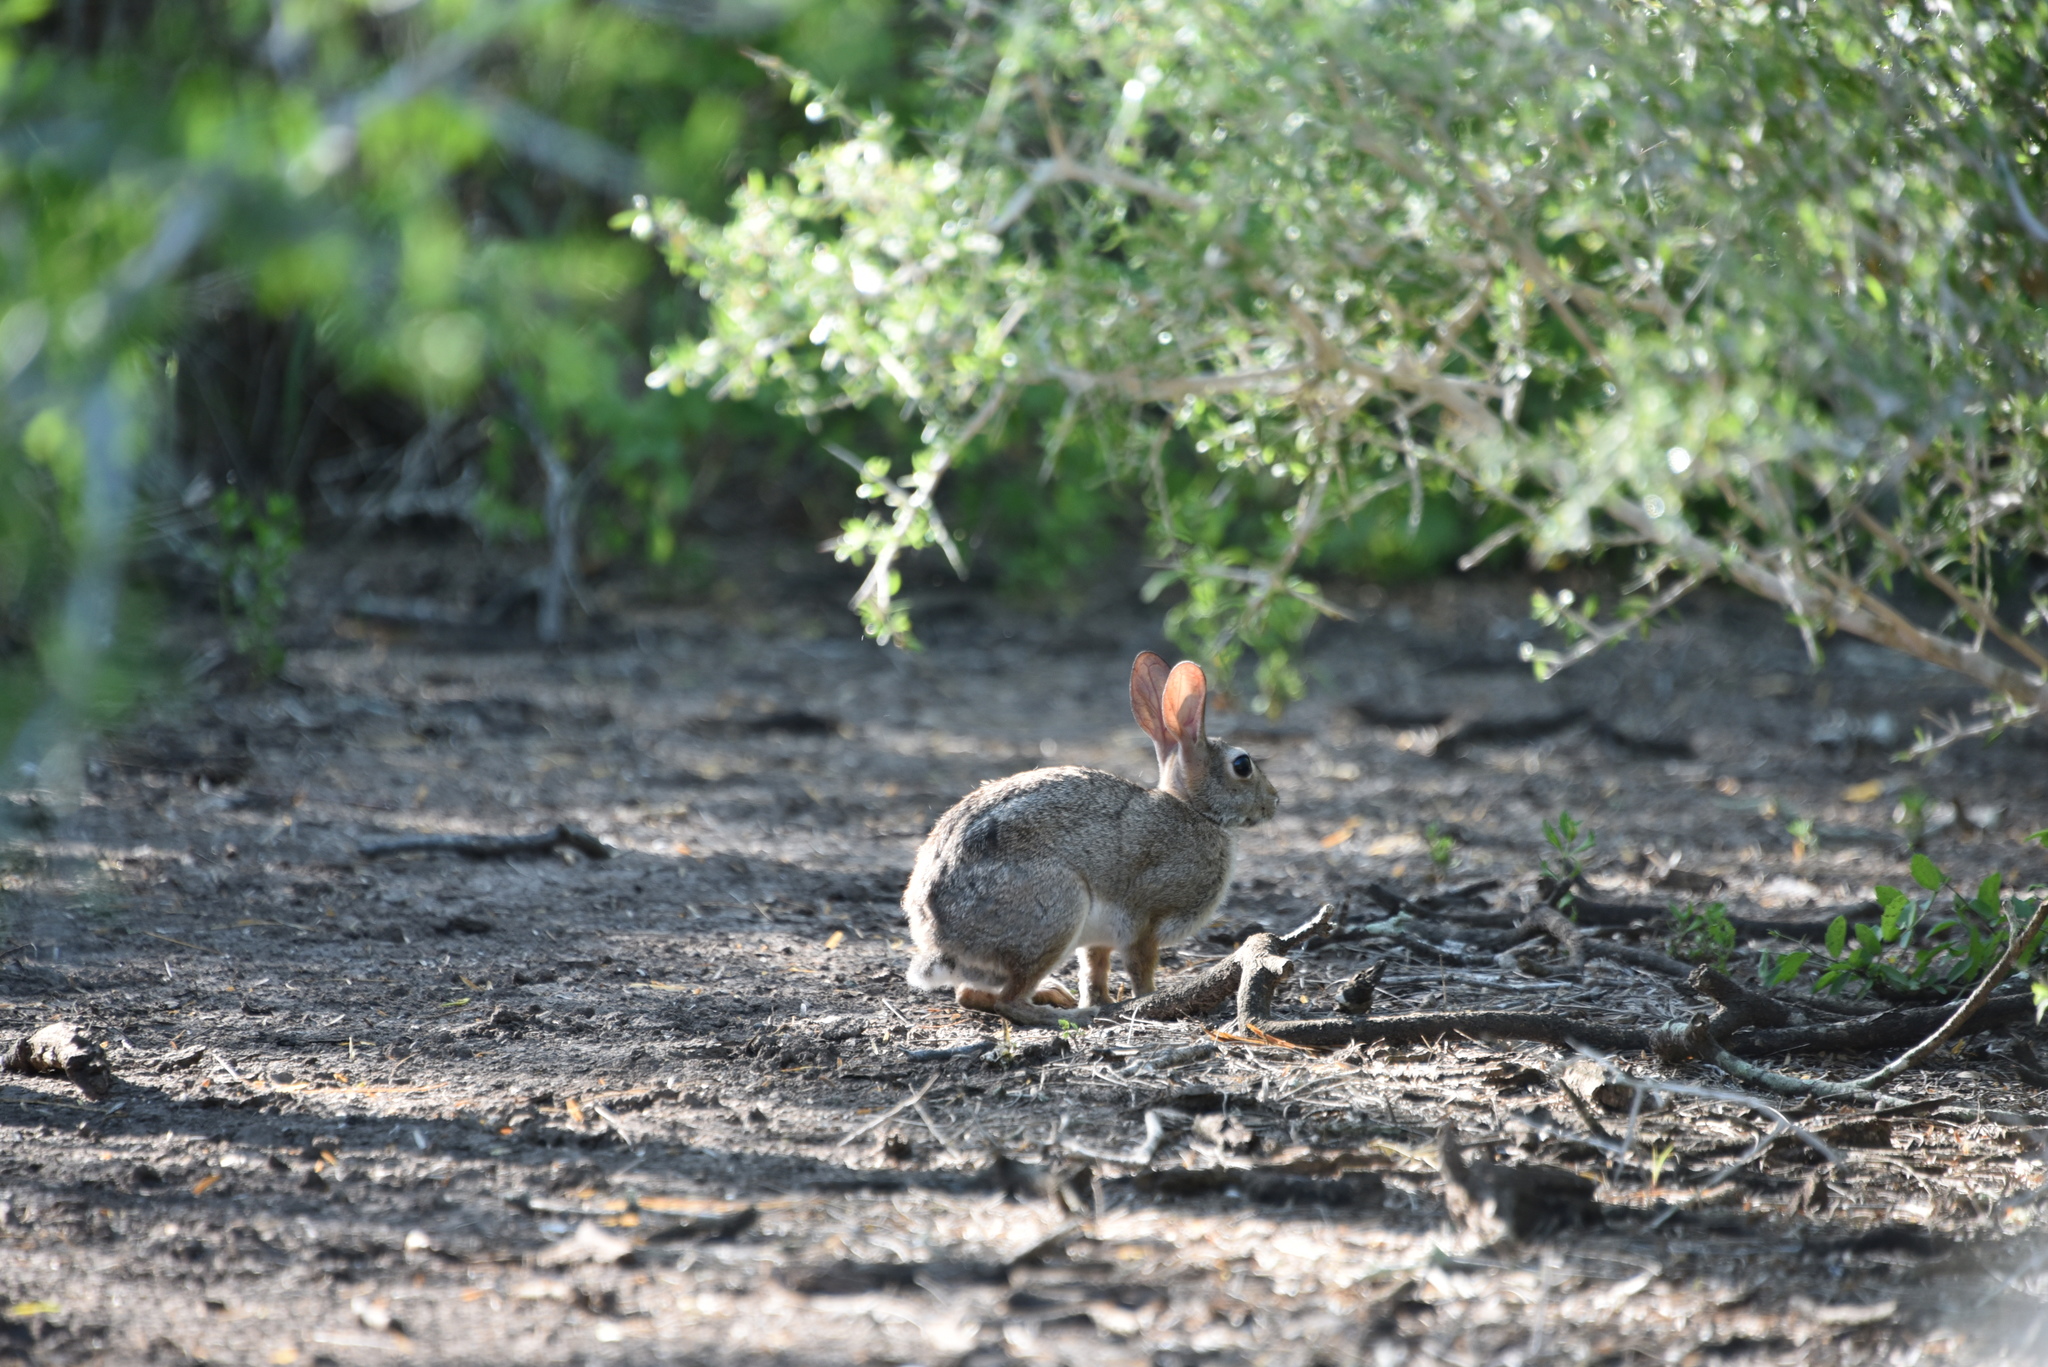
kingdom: Animalia
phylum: Chordata
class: Mammalia
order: Lagomorpha
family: Leporidae
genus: Sylvilagus
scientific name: Sylvilagus floridanus
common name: Eastern cottontail
